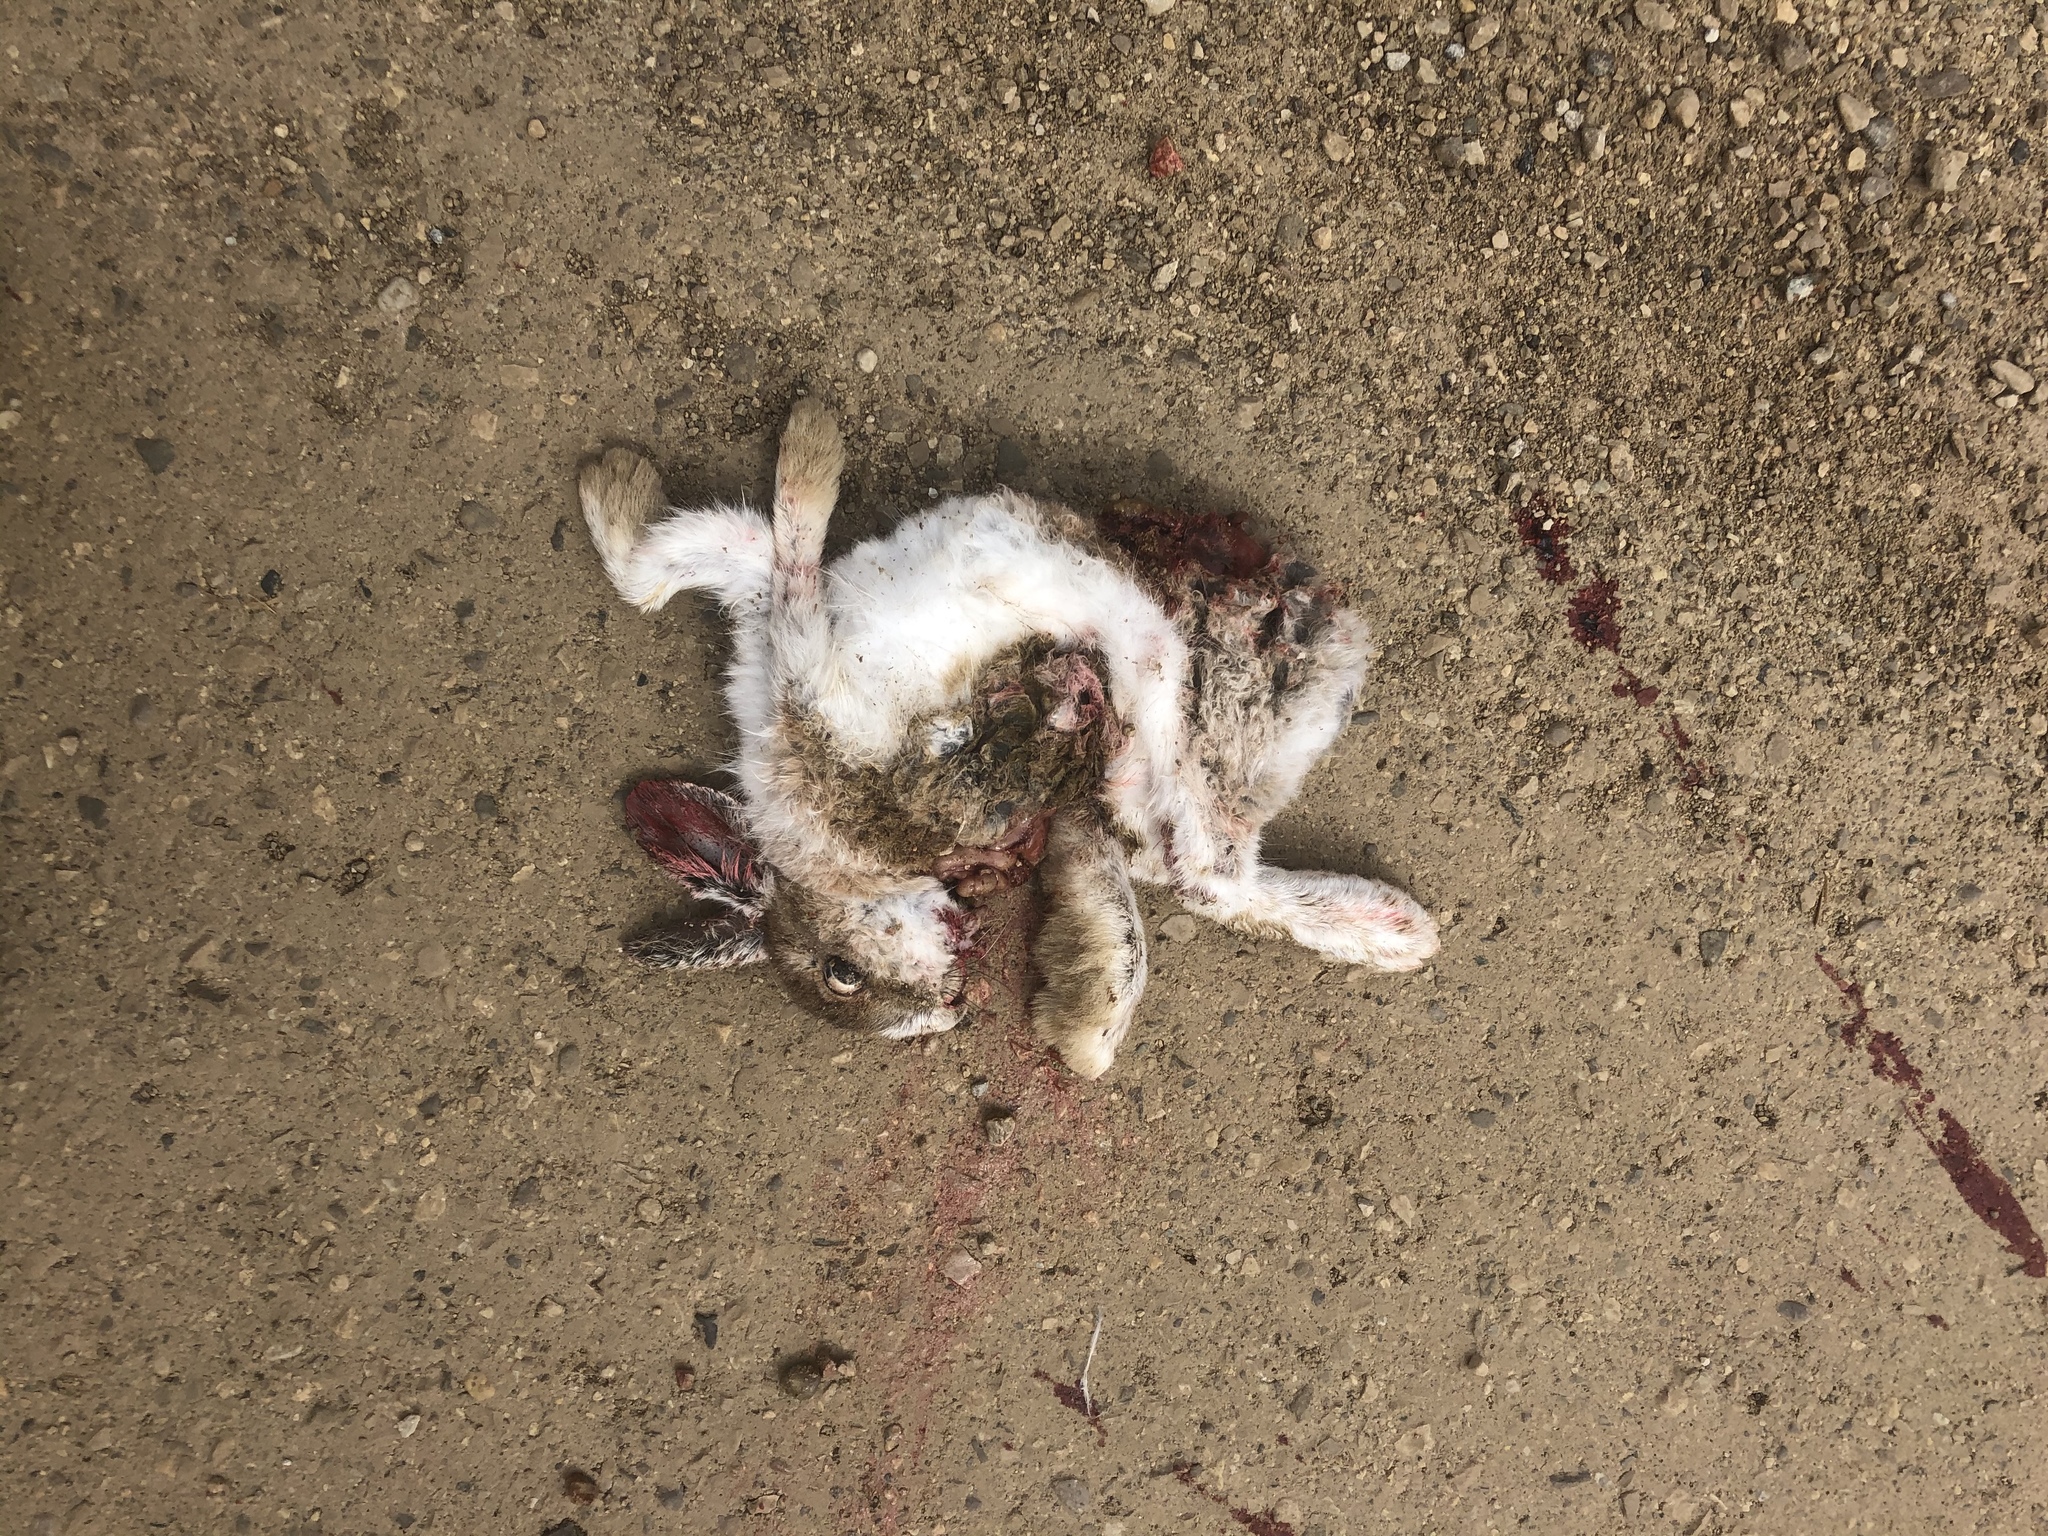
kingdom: Animalia
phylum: Chordata
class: Mammalia
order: Lagomorpha
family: Leporidae
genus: Lepus
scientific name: Lepus americanus
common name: Snowshoe hare
